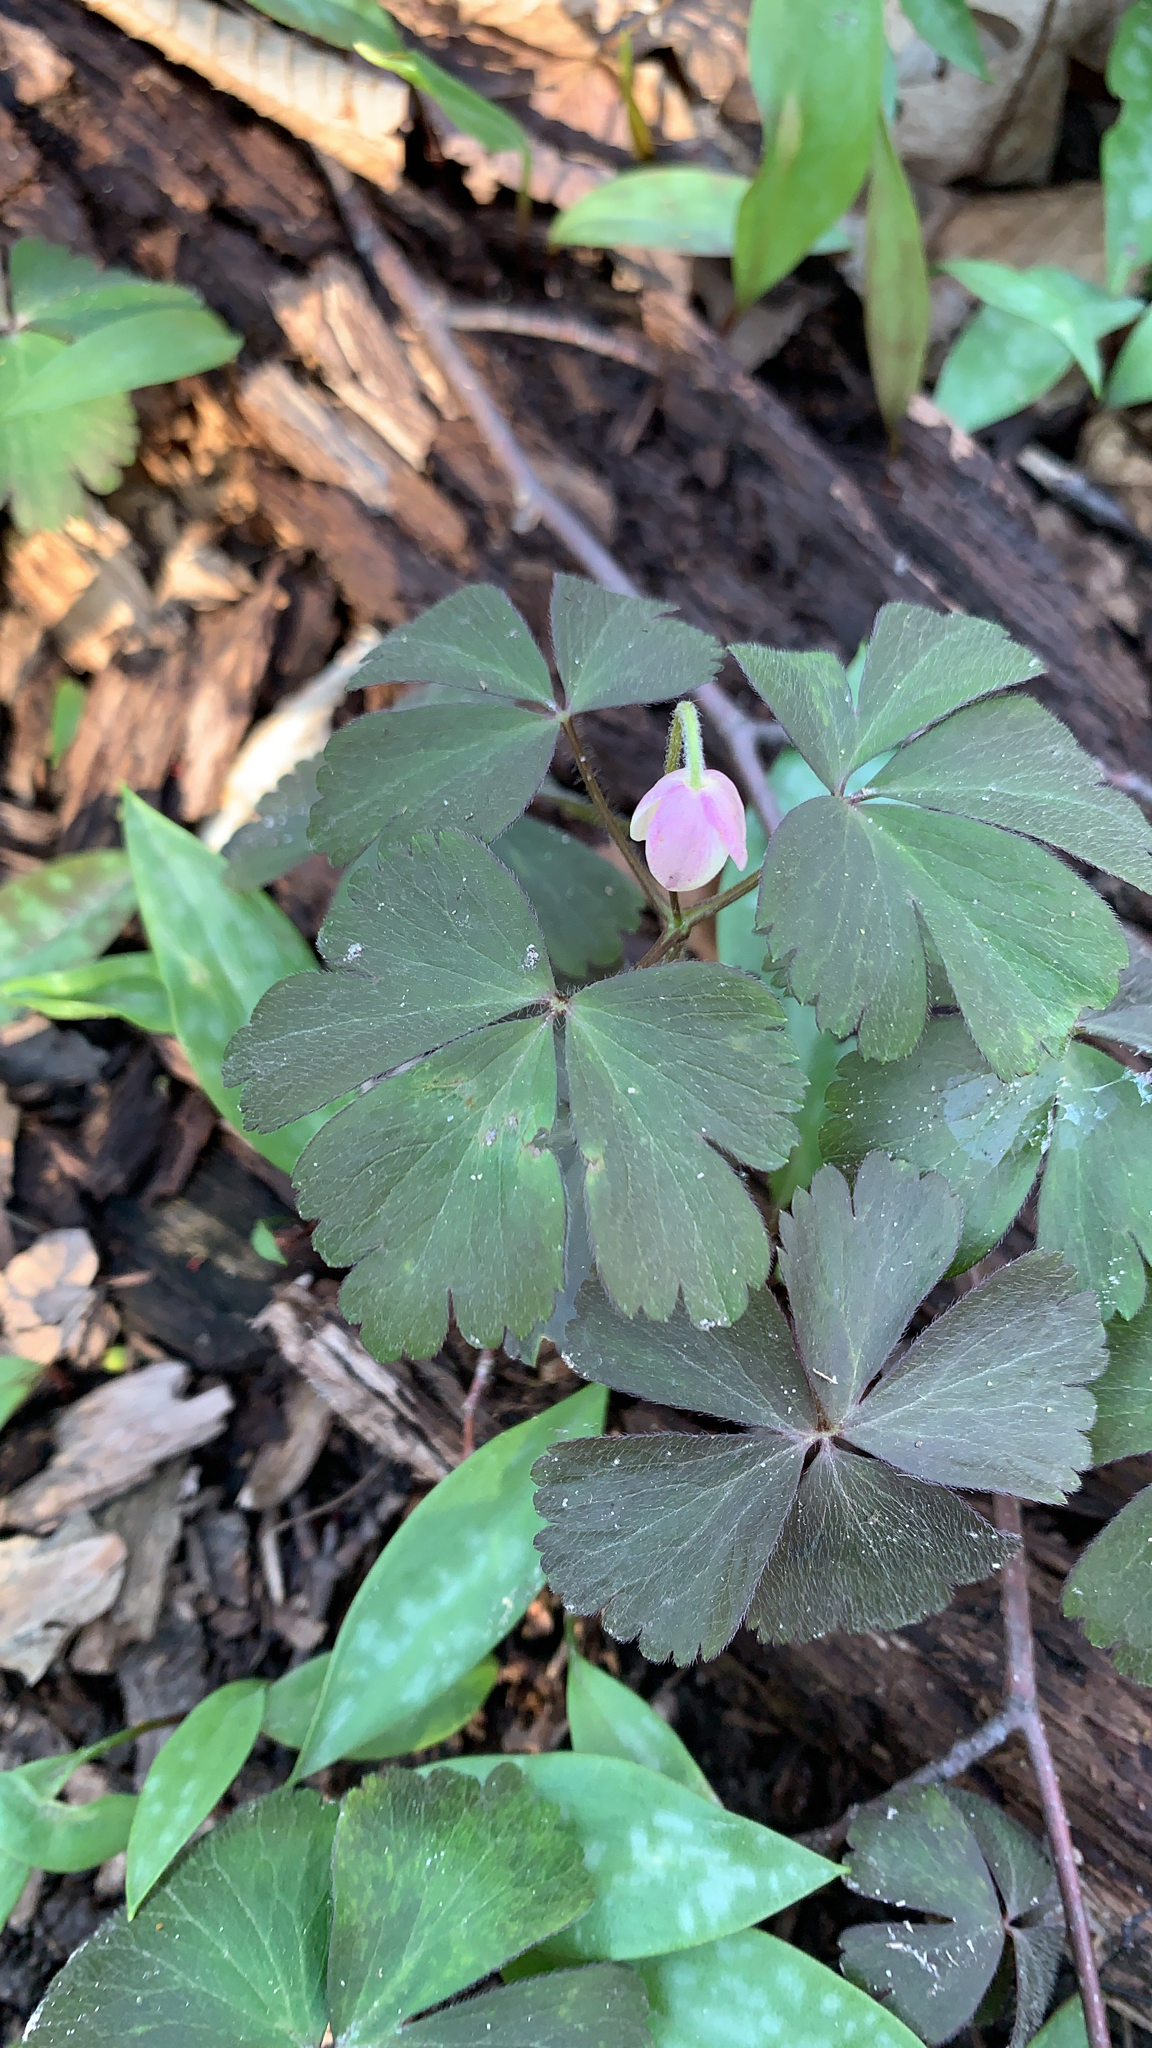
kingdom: Plantae
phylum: Tracheophyta
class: Magnoliopsida
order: Ranunculales
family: Ranunculaceae
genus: Anemone
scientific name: Anemone quinquefolia
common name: Wood anemone
